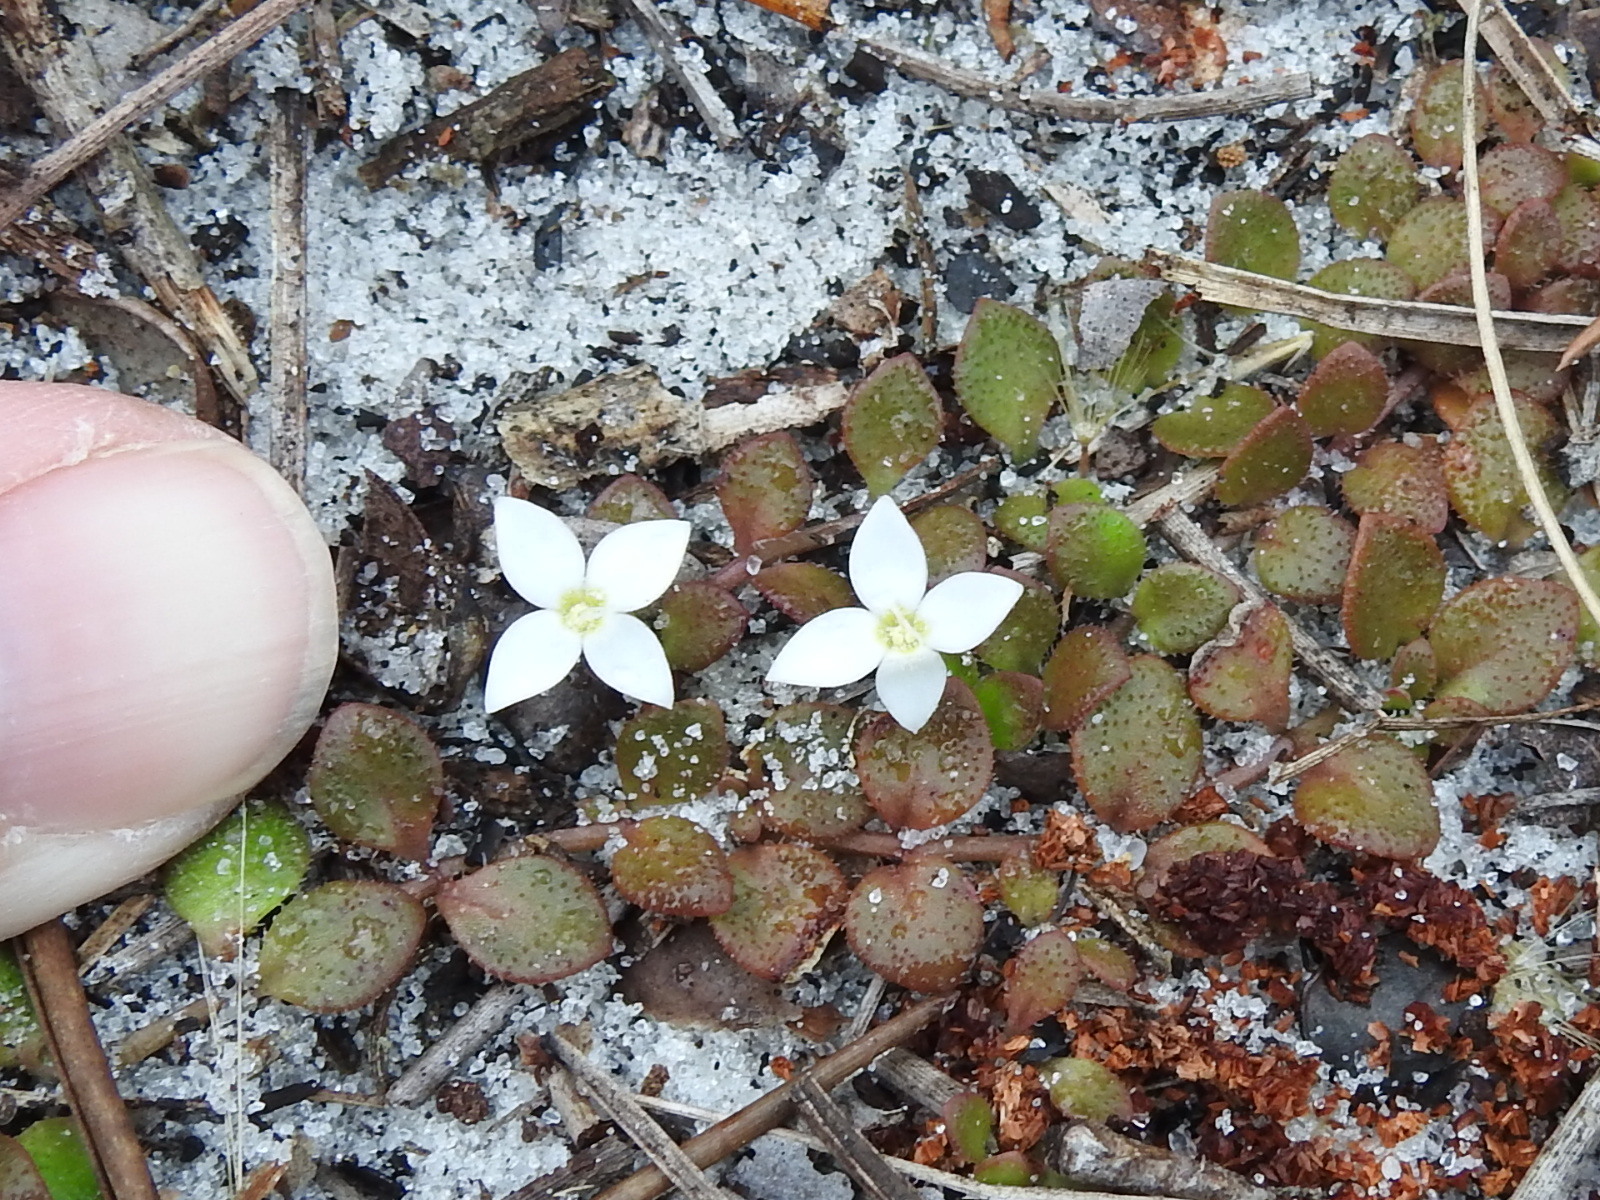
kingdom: Plantae
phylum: Tracheophyta
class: Magnoliopsida
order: Gentianales
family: Rubiaceae
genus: Houstonia
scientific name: Houstonia procumbens
